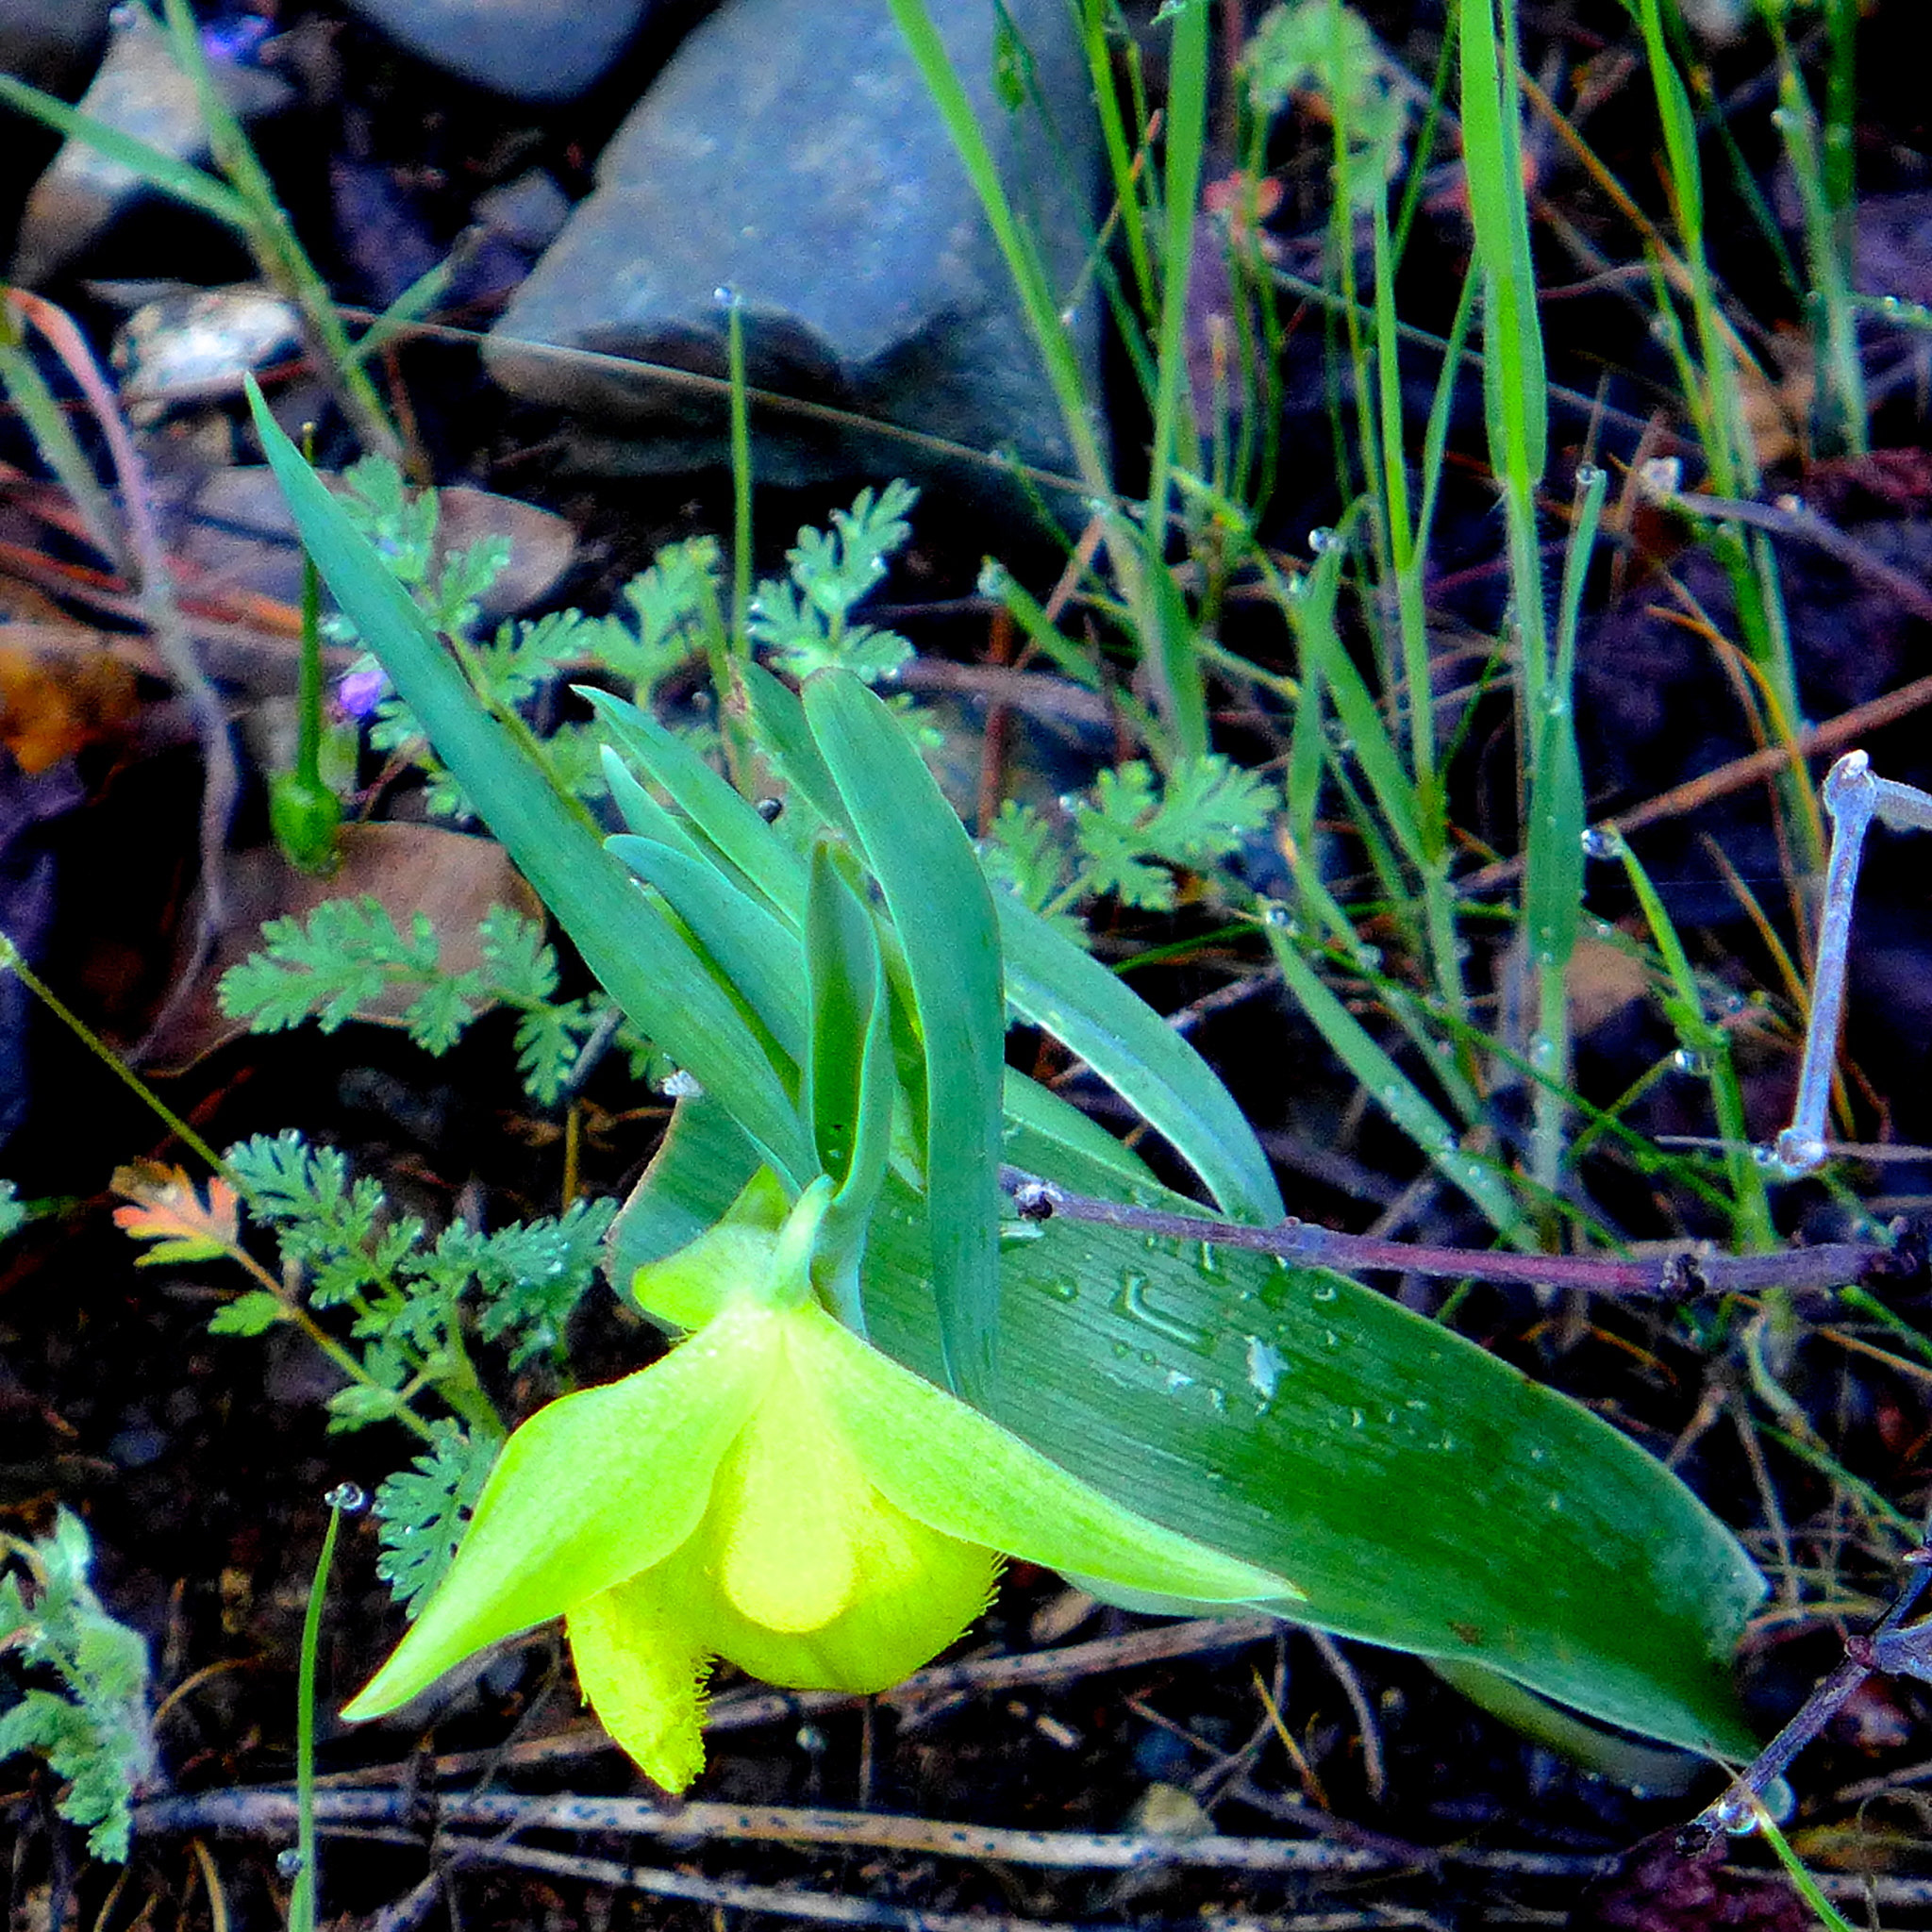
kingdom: Plantae
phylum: Tracheophyta
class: Liliopsida
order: Liliales
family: Liliaceae
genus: Calochortus
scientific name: Calochortus pulchellus
